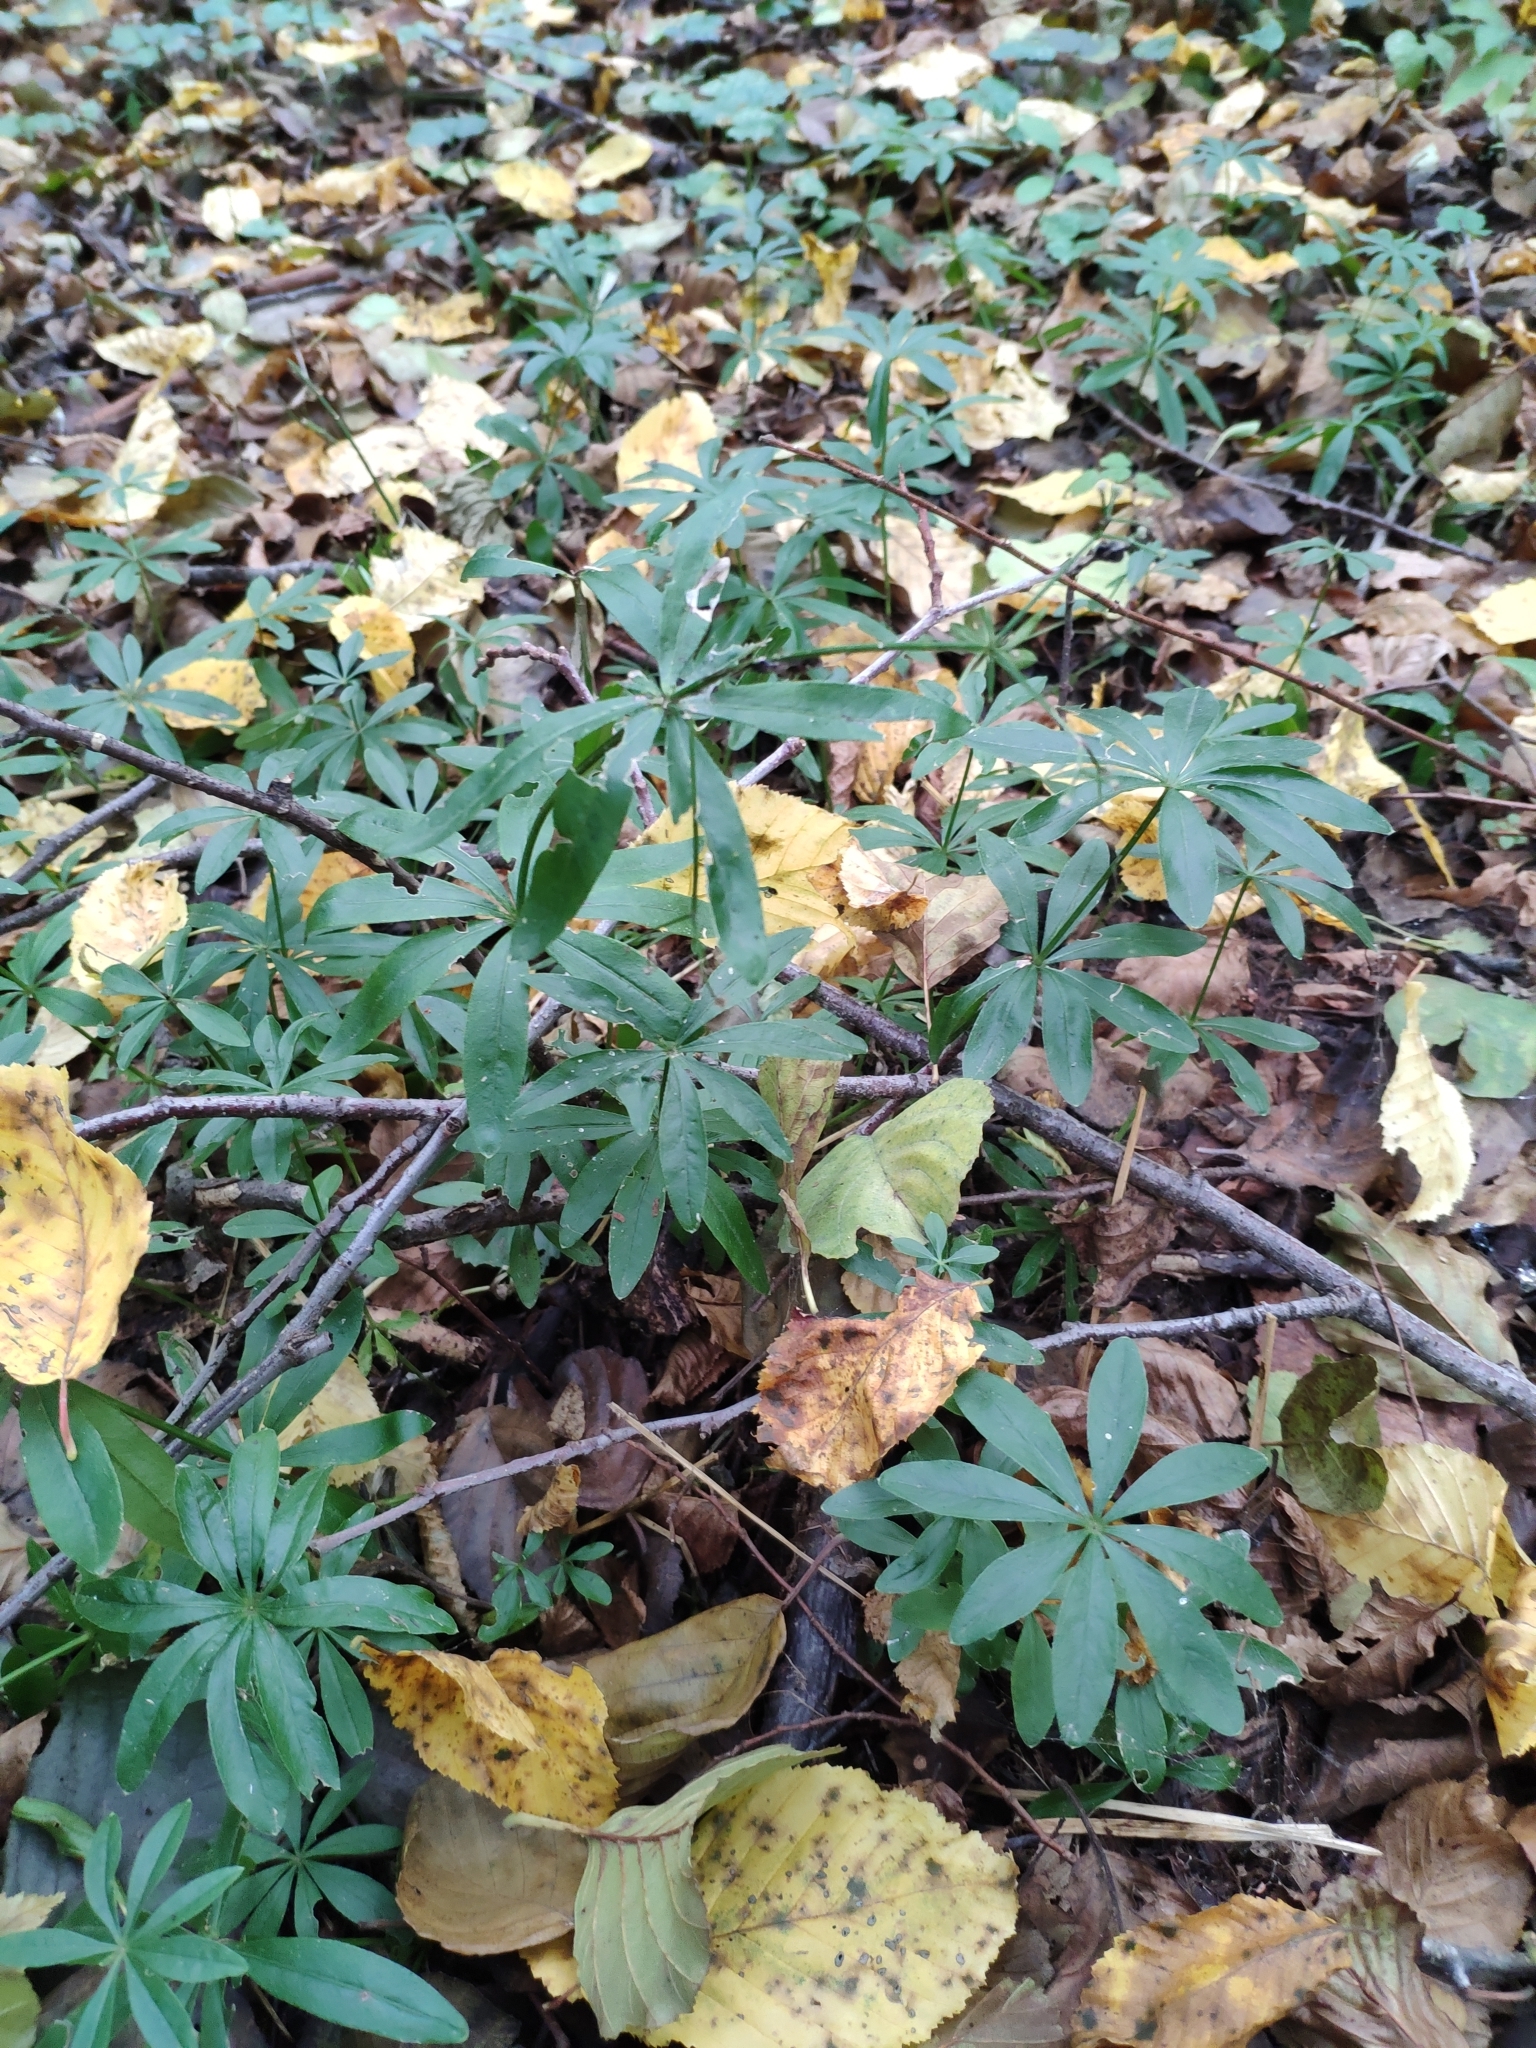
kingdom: Plantae
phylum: Tracheophyta
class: Magnoliopsida
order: Gentianales
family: Rubiaceae
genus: Galium
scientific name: Galium odoratum
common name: Sweet woodruff
